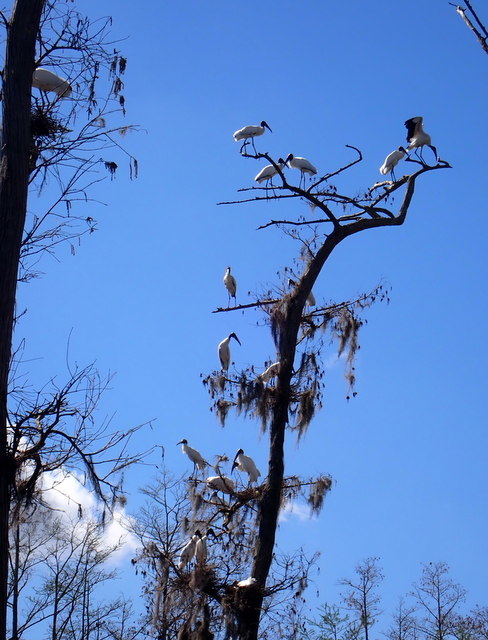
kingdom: Animalia
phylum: Chordata
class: Aves
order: Ciconiiformes
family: Ciconiidae
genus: Mycteria
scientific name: Mycteria americana
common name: Wood stork
